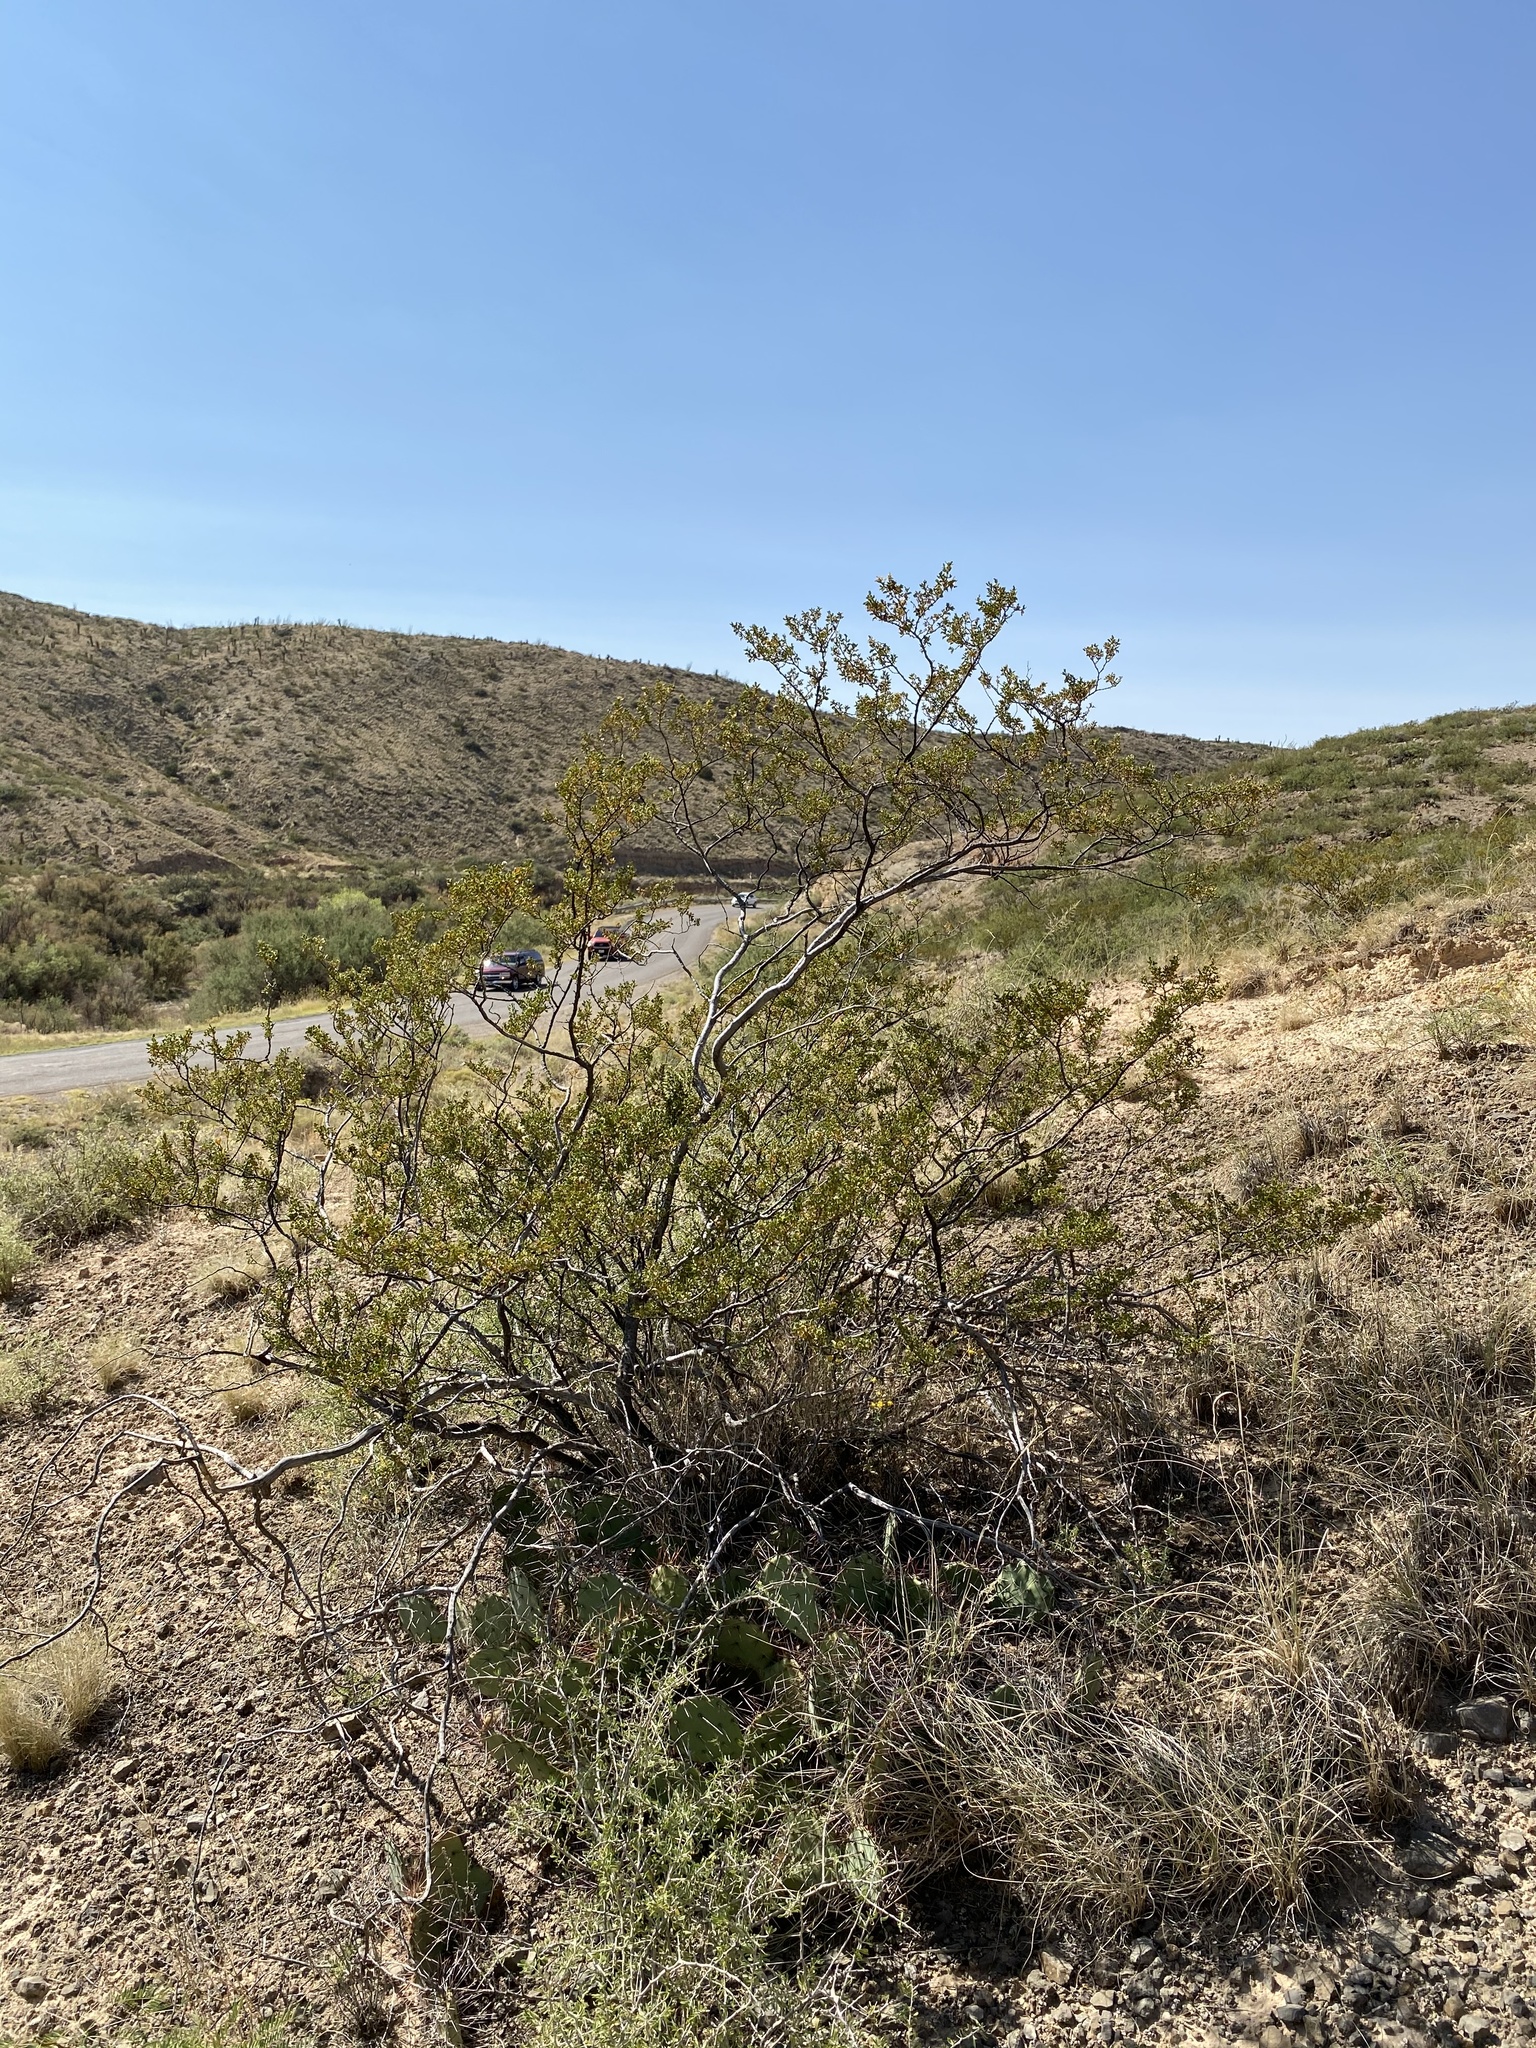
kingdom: Plantae
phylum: Tracheophyta
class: Magnoliopsida
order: Zygophyllales
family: Zygophyllaceae
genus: Larrea
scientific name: Larrea tridentata
